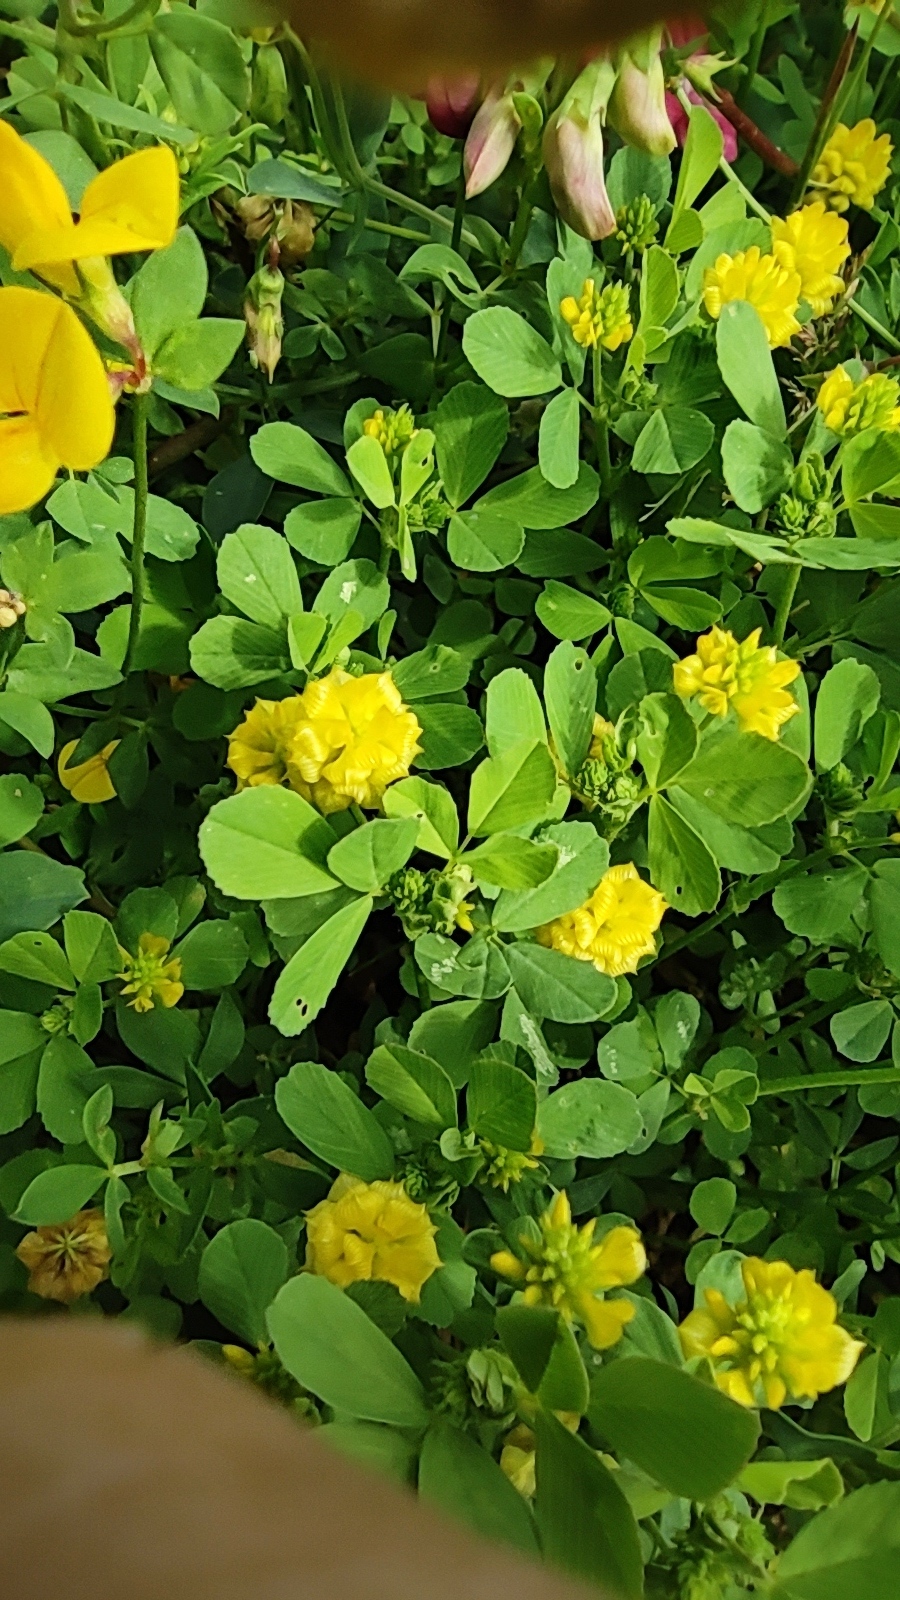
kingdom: Plantae
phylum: Tracheophyta
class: Magnoliopsida
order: Fabales
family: Fabaceae
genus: Trifolium
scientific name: Trifolium campestre
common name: Field clover
